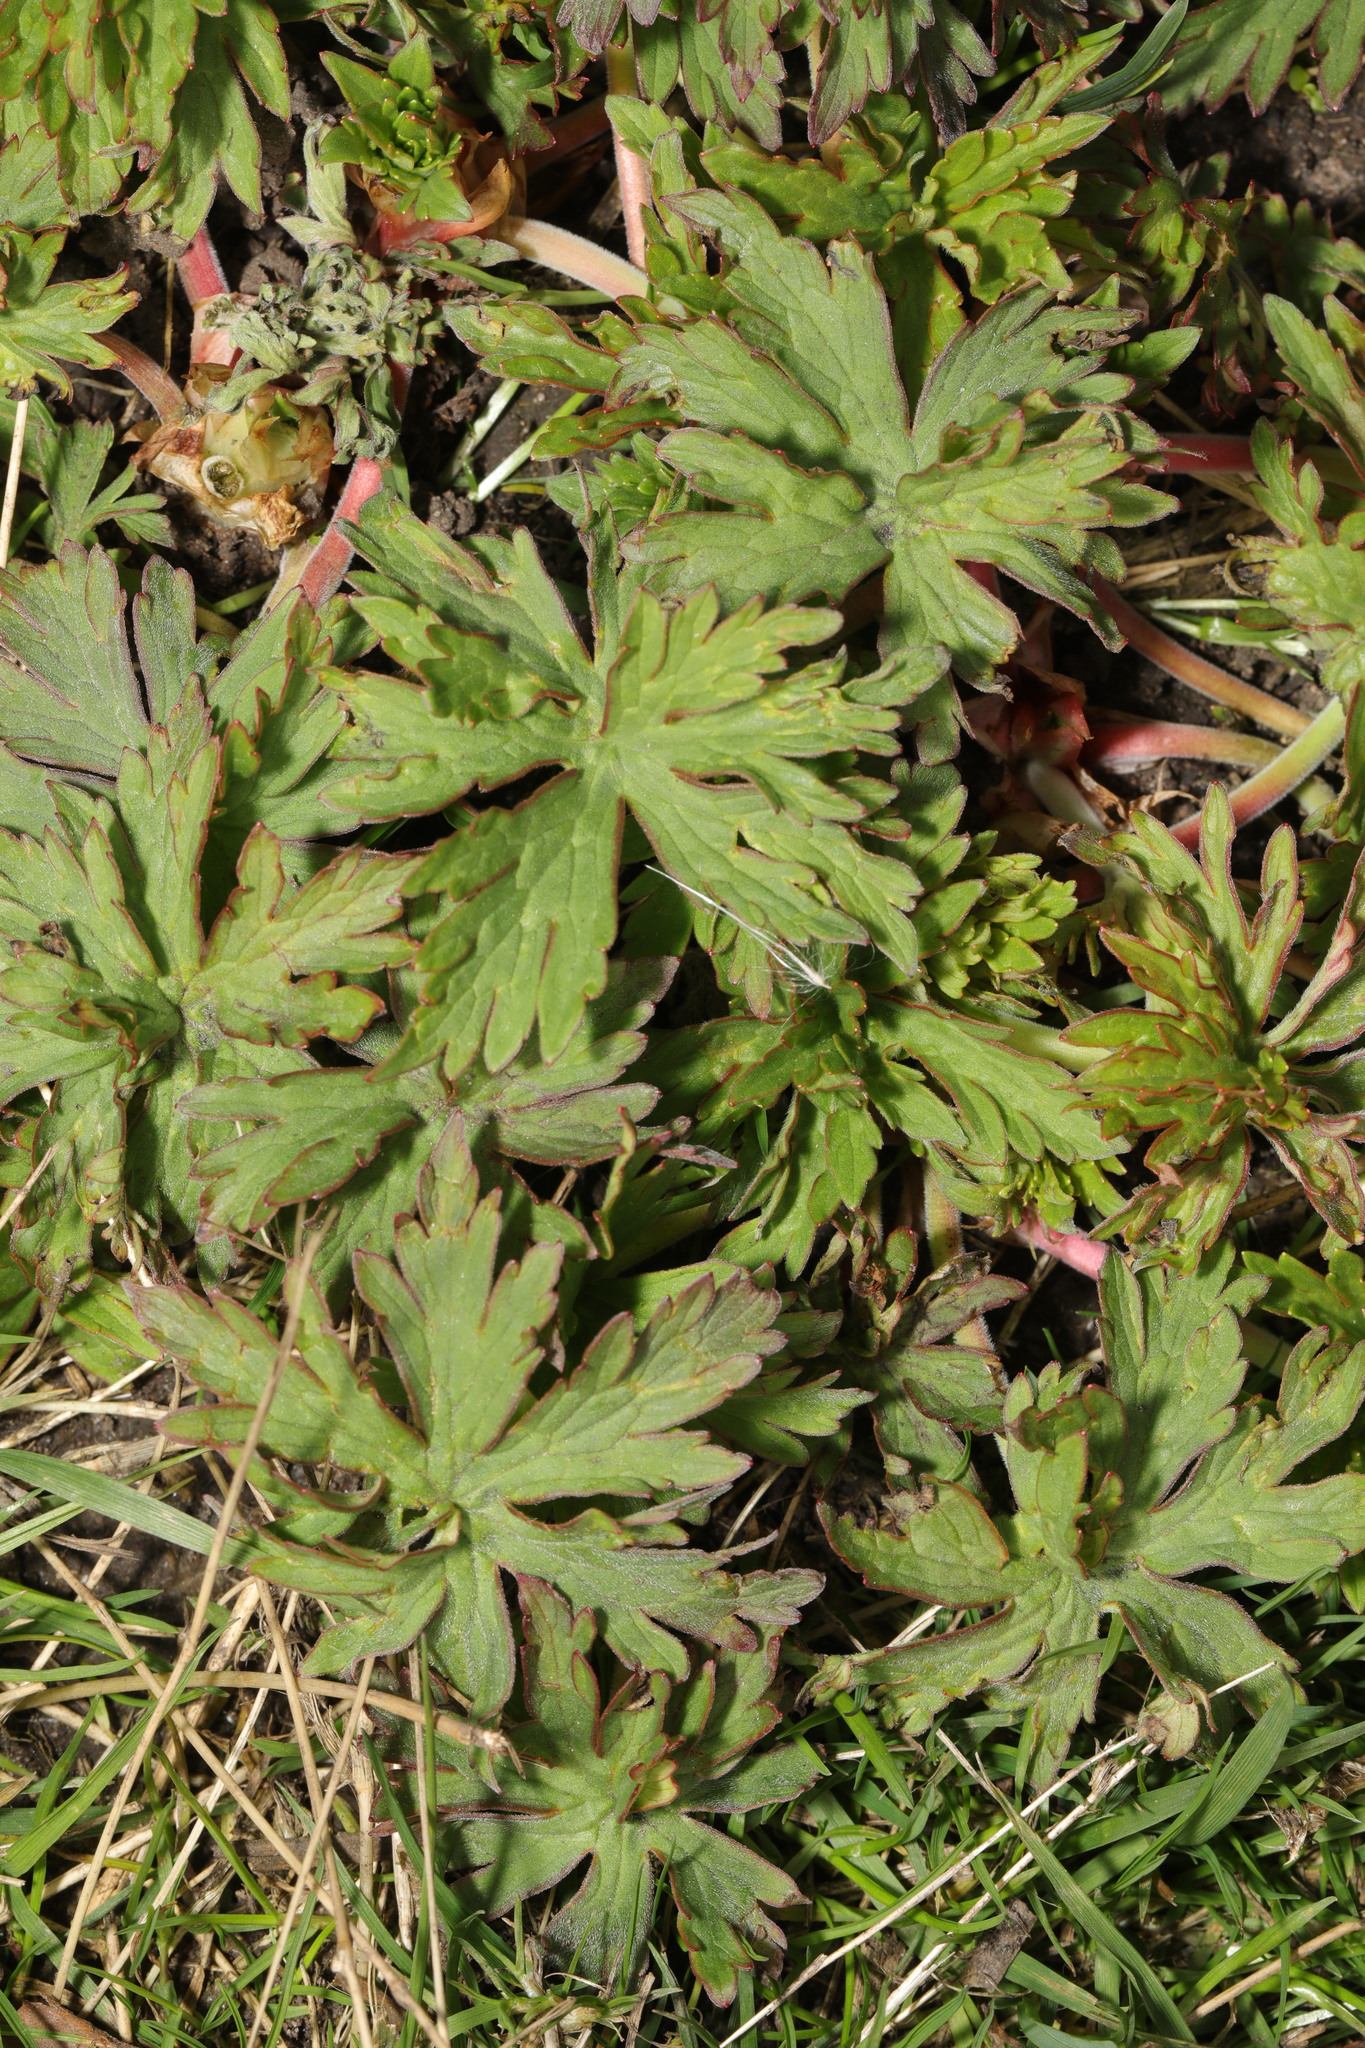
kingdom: Plantae
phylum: Tracheophyta
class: Magnoliopsida
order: Geraniales
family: Geraniaceae
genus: Geranium
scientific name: Geranium pratense
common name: Meadow crane's-bill
